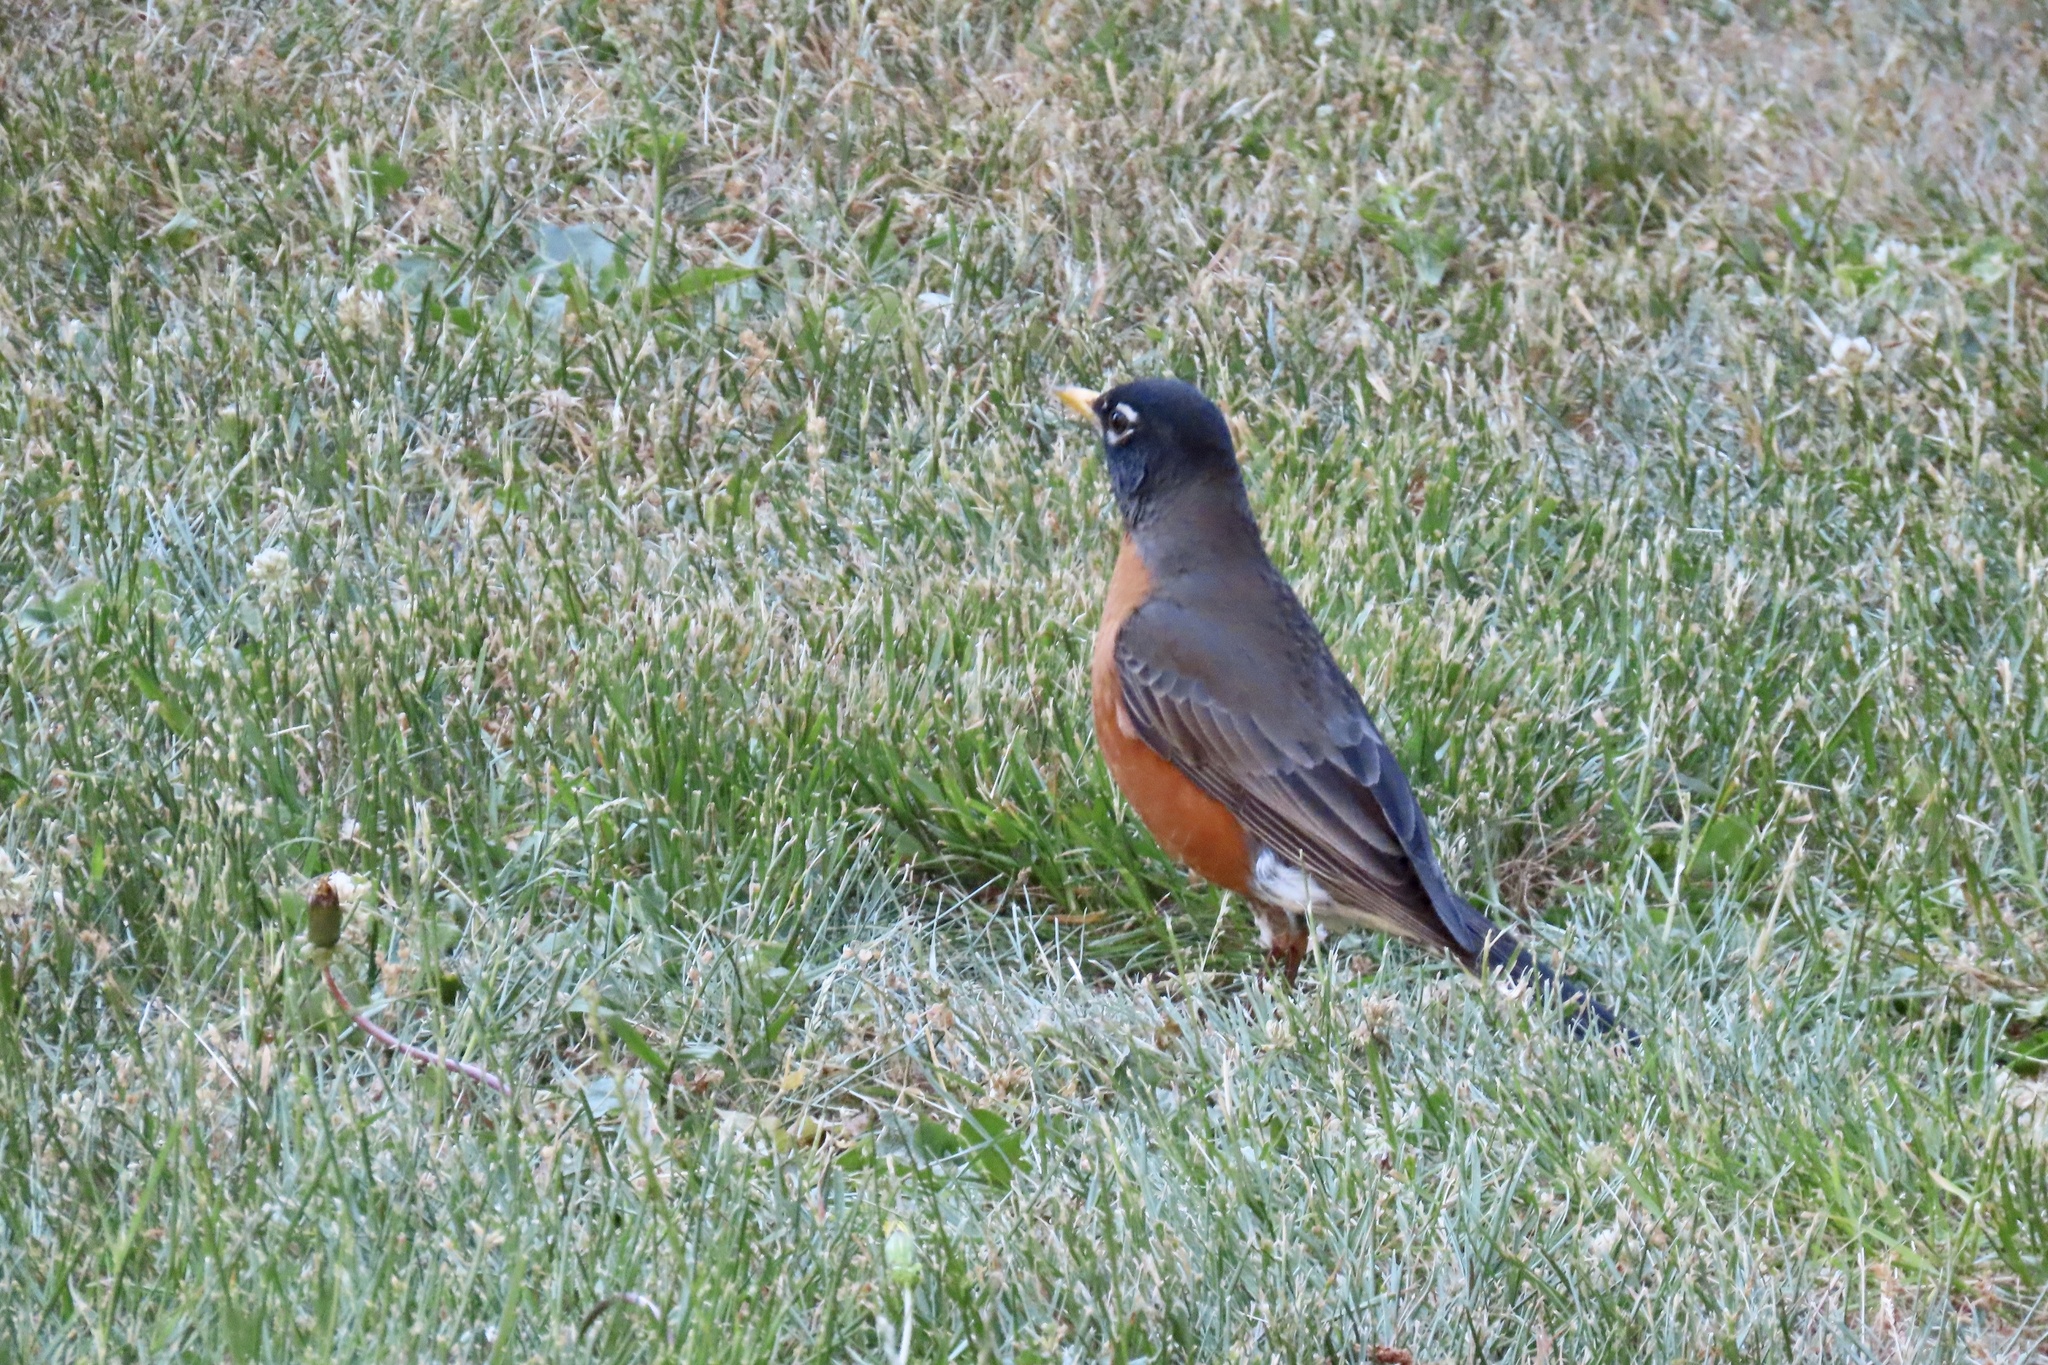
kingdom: Animalia
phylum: Chordata
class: Aves
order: Passeriformes
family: Turdidae
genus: Turdus
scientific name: Turdus migratorius
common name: American robin
